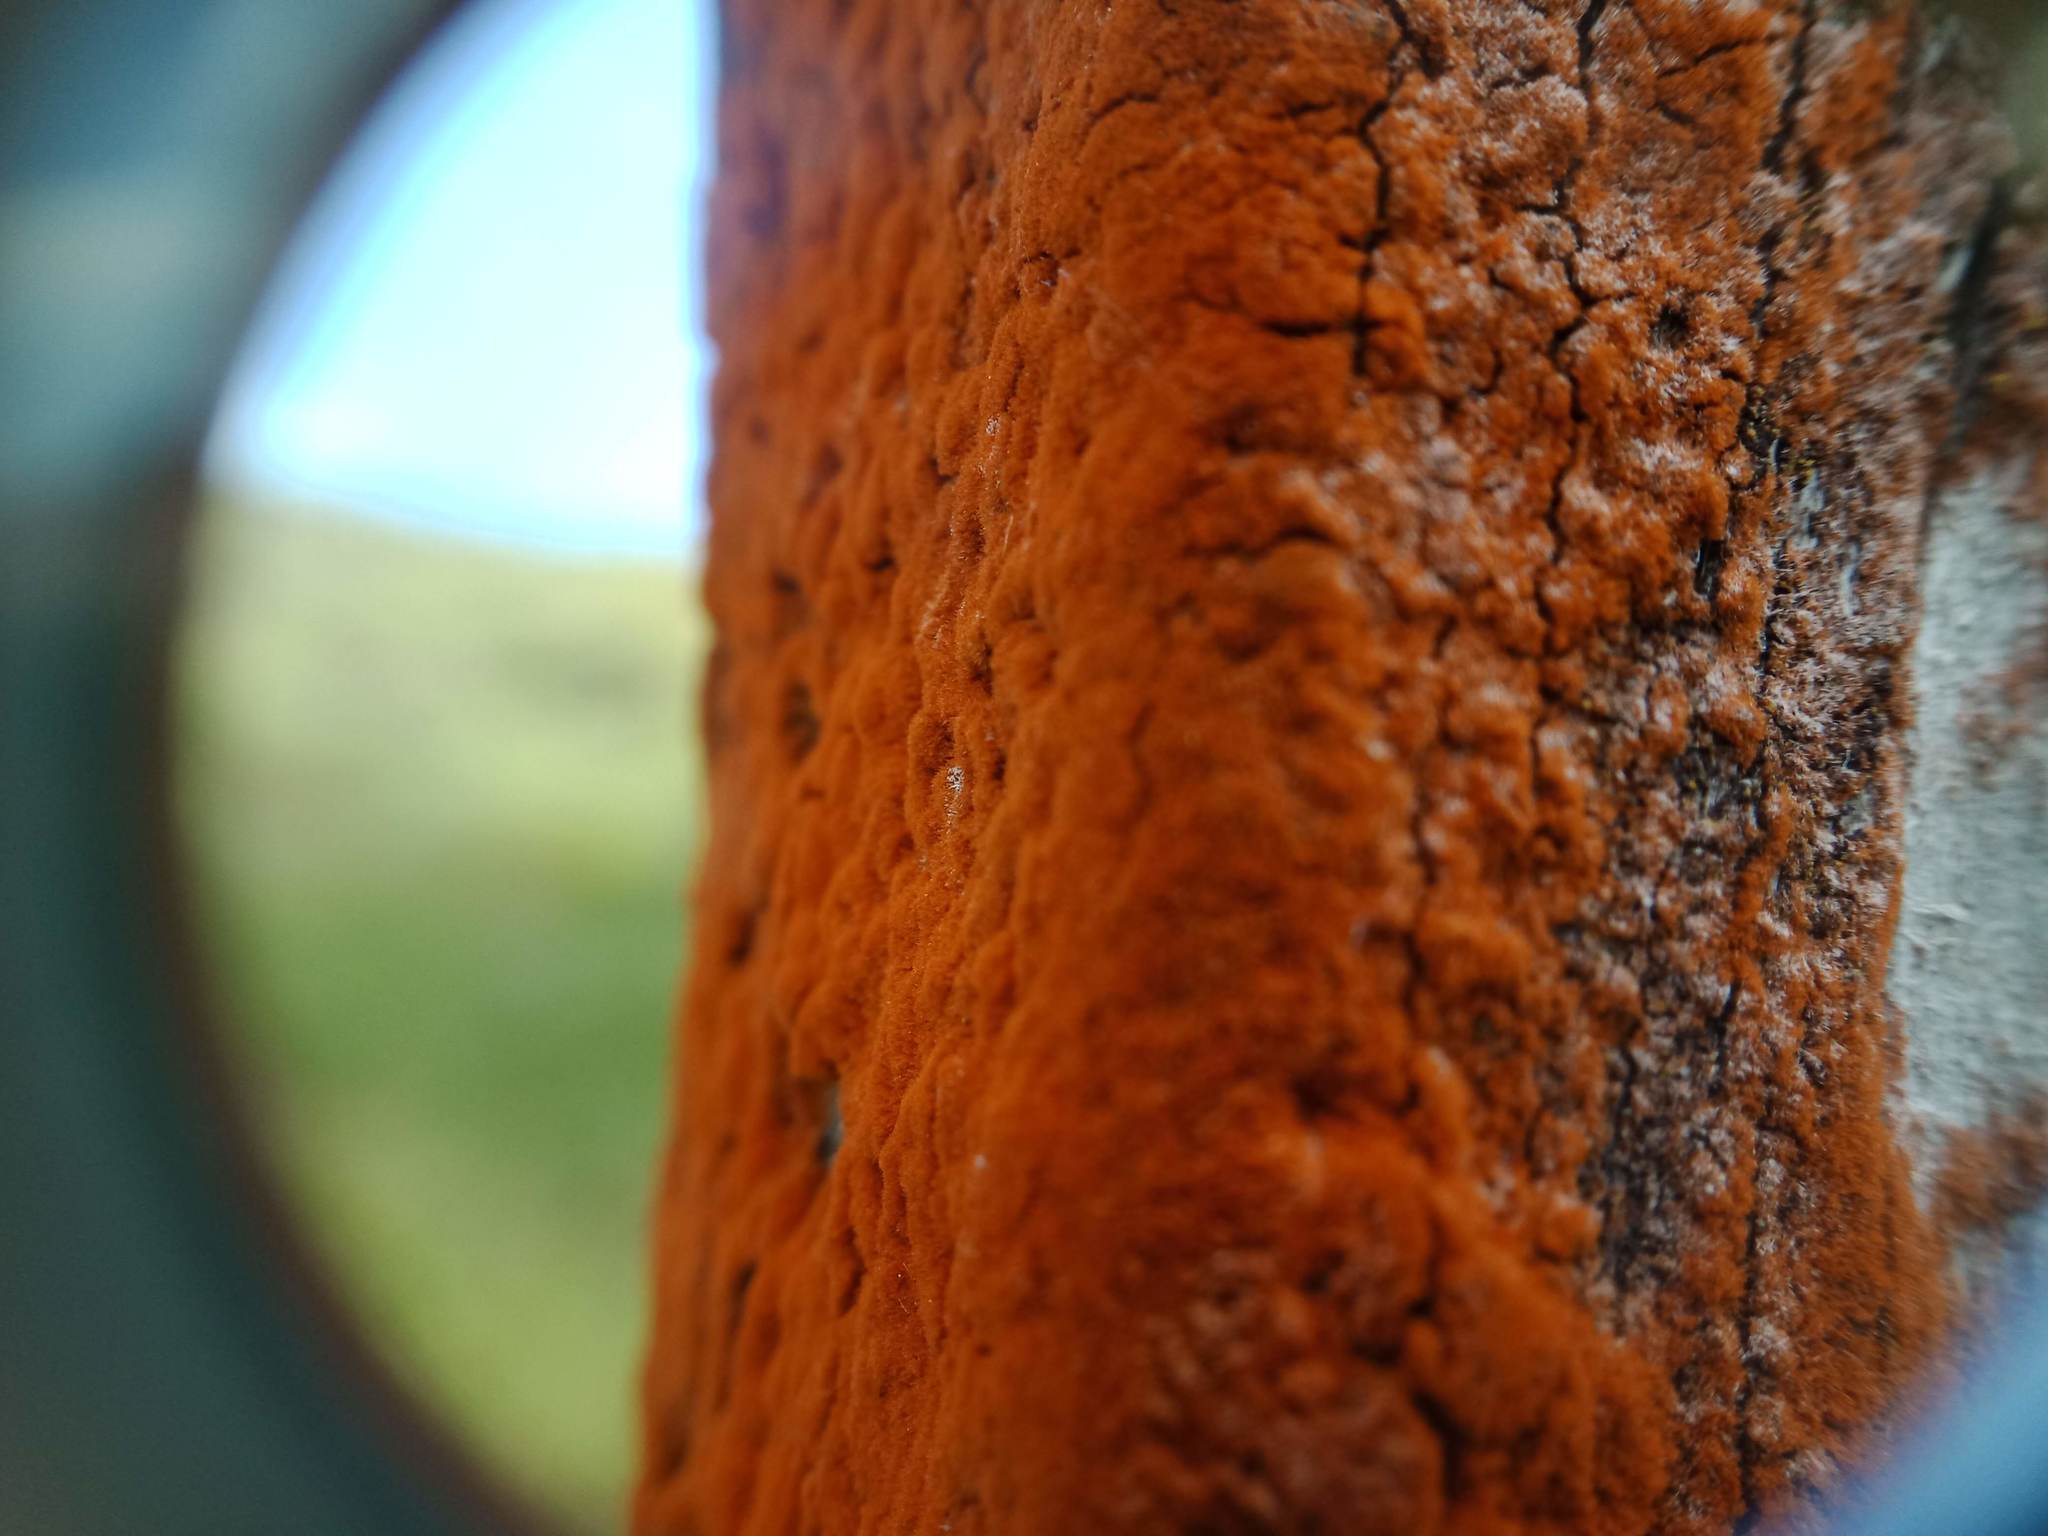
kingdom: Plantae
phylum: Chlorophyta
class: Ulvophyceae
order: Trentepohliales
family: Trentepohliaceae
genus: Trentepohlia
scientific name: Trentepohlia
